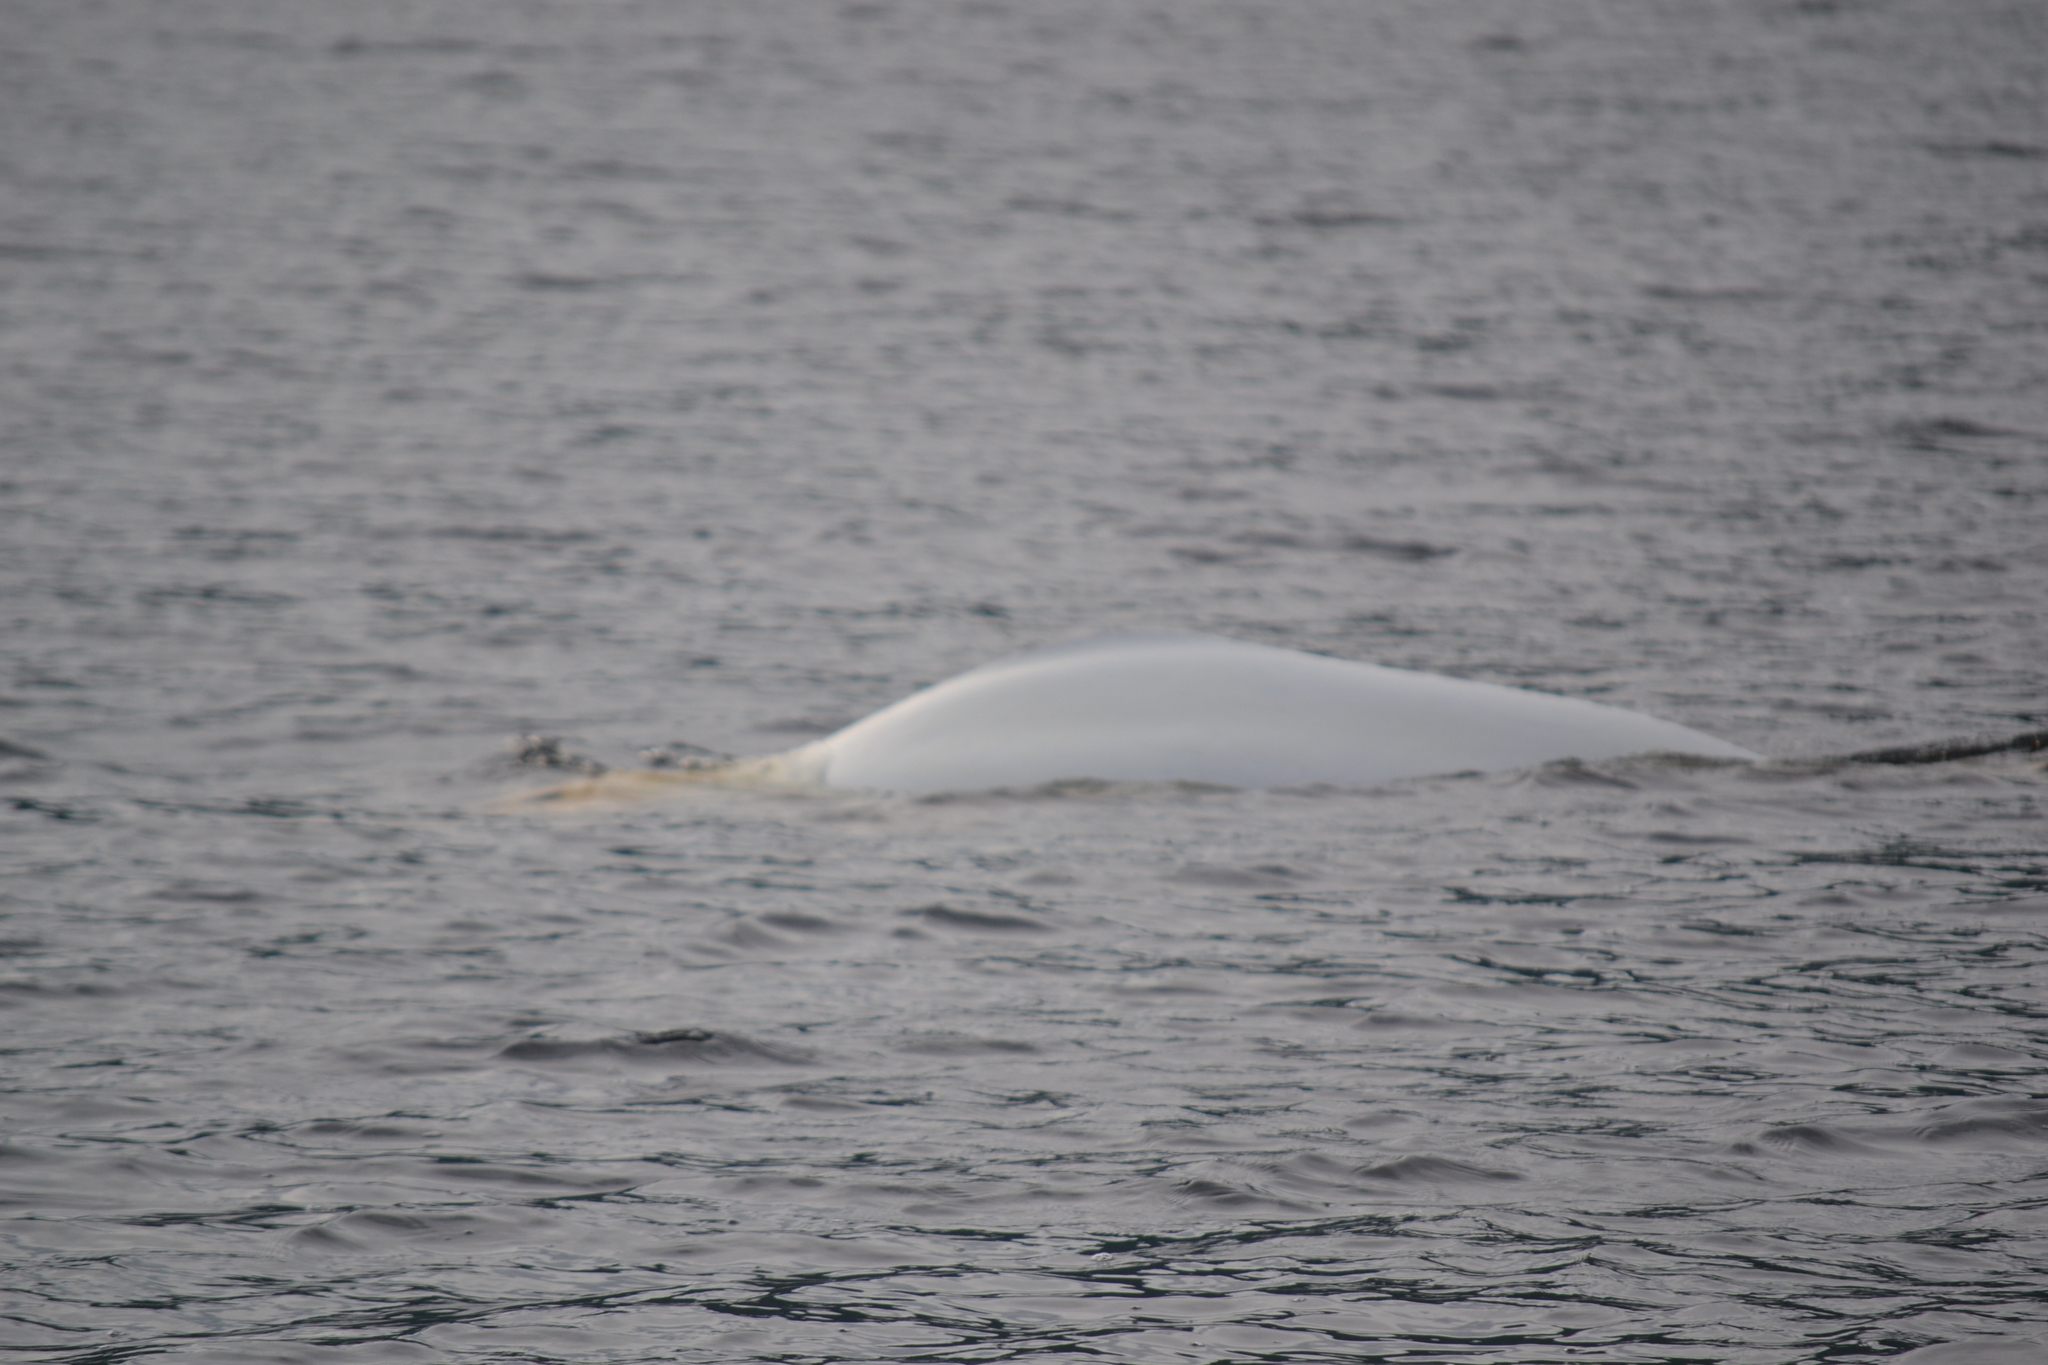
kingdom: Animalia
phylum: Chordata
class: Mammalia
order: Cetacea
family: Monodontidae
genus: Delphinapterus
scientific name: Delphinapterus leucas
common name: Beluga
